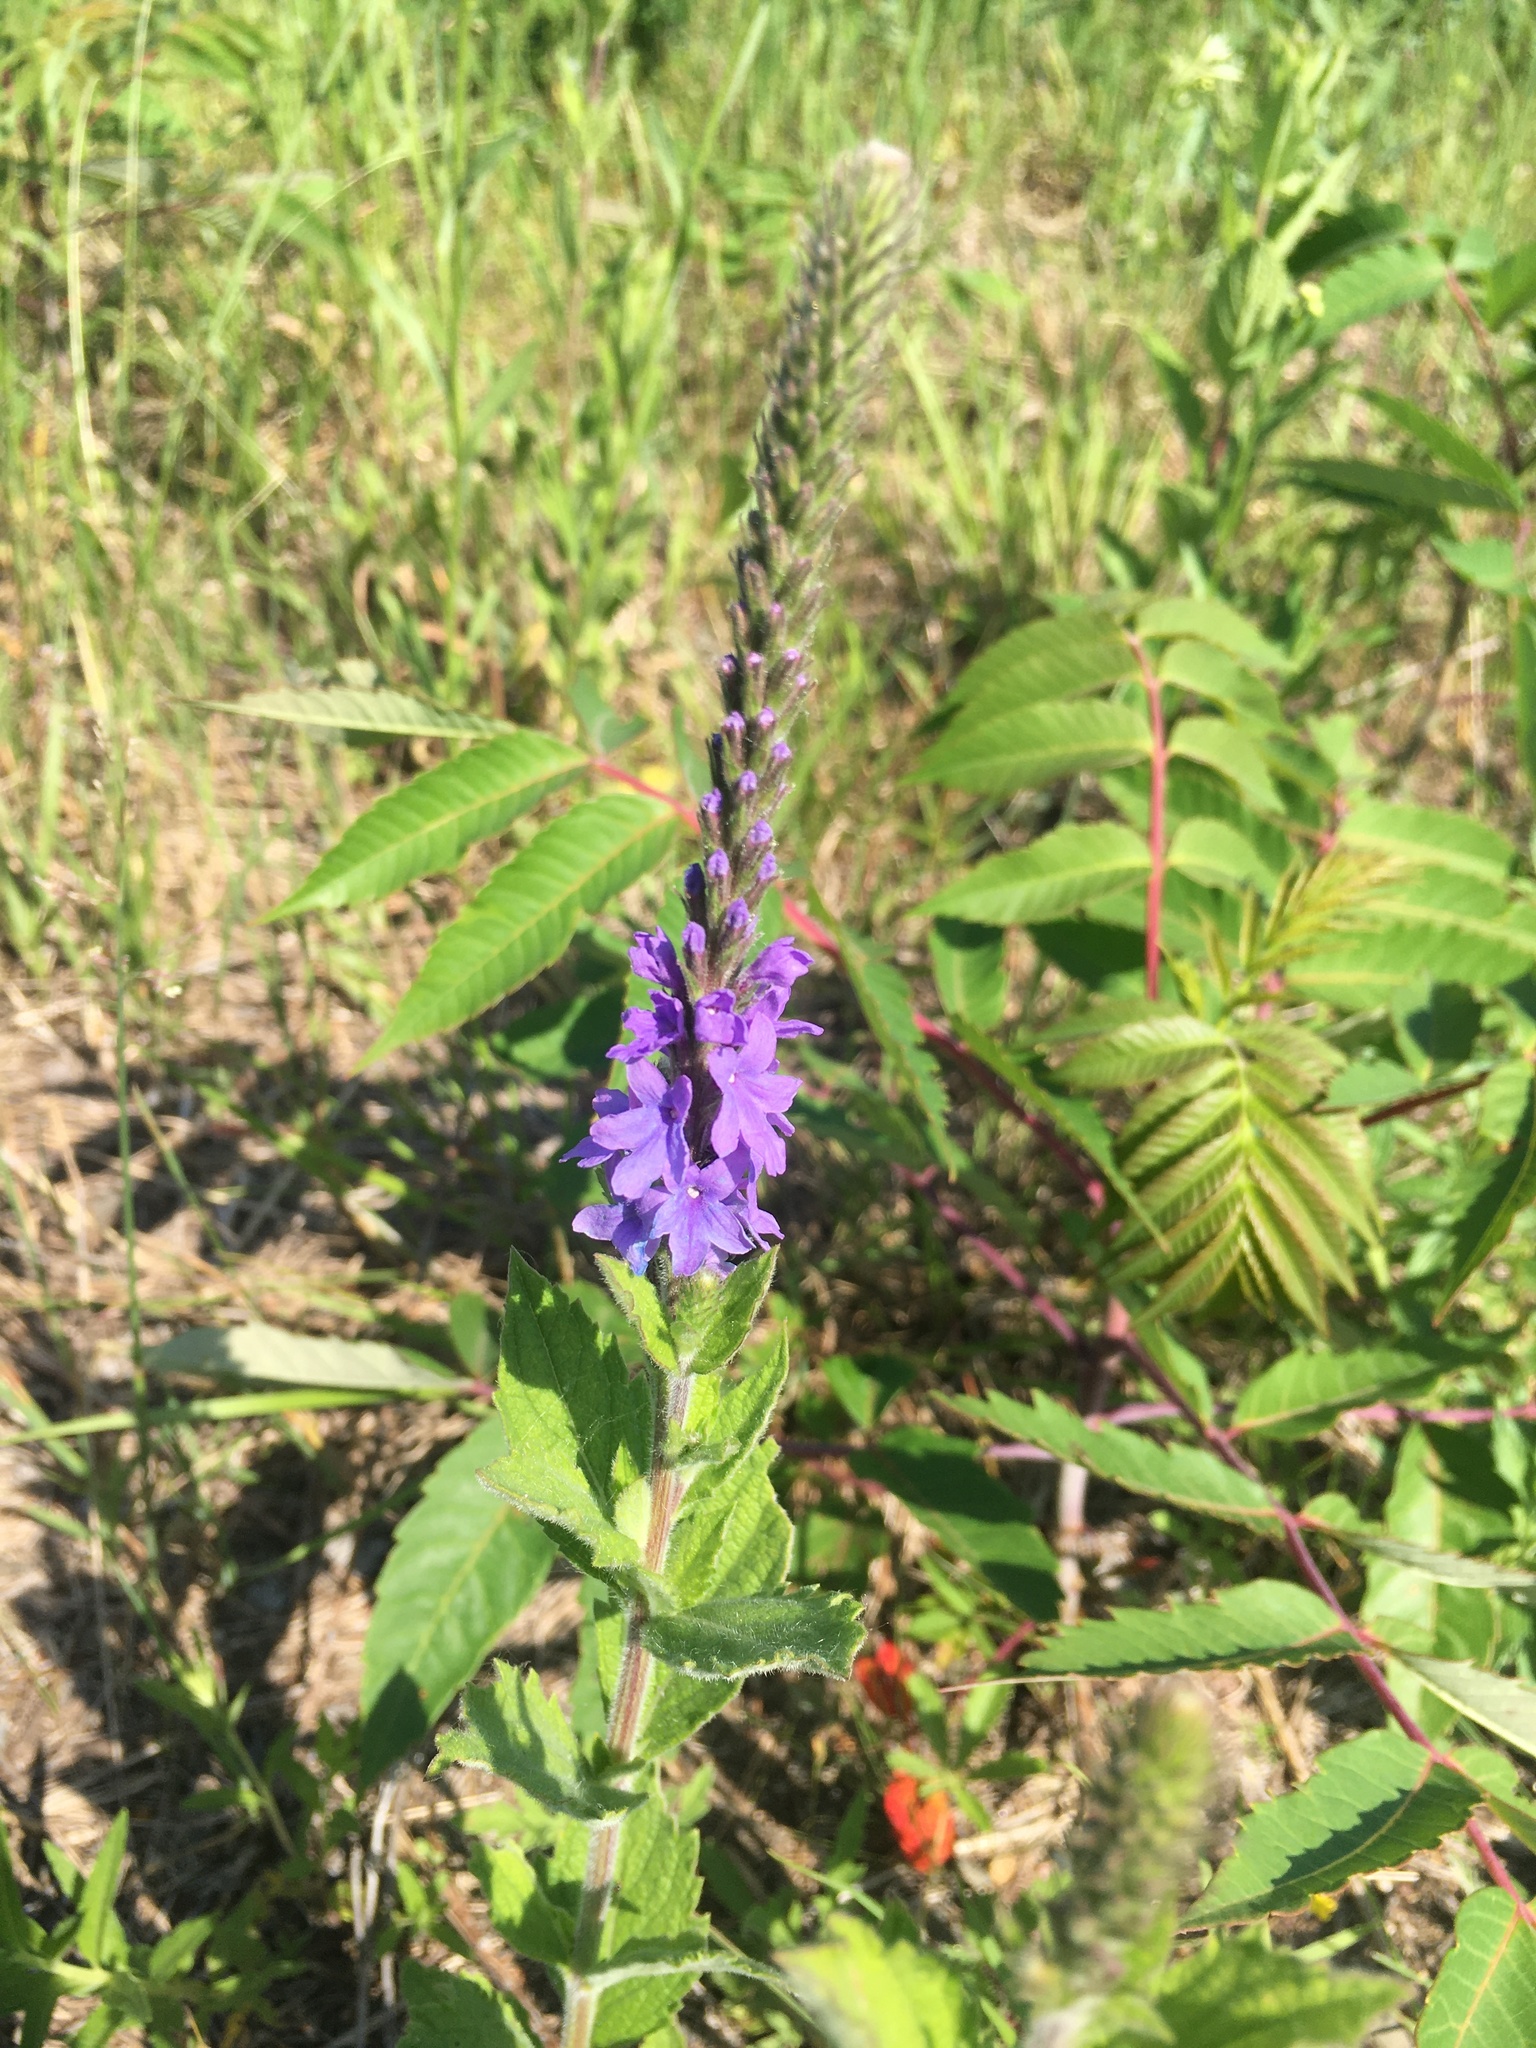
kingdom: Plantae
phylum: Tracheophyta
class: Magnoliopsida
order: Lamiales
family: Verbenaceae
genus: Verbena
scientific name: Verbena stricta
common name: Hoary vervain
